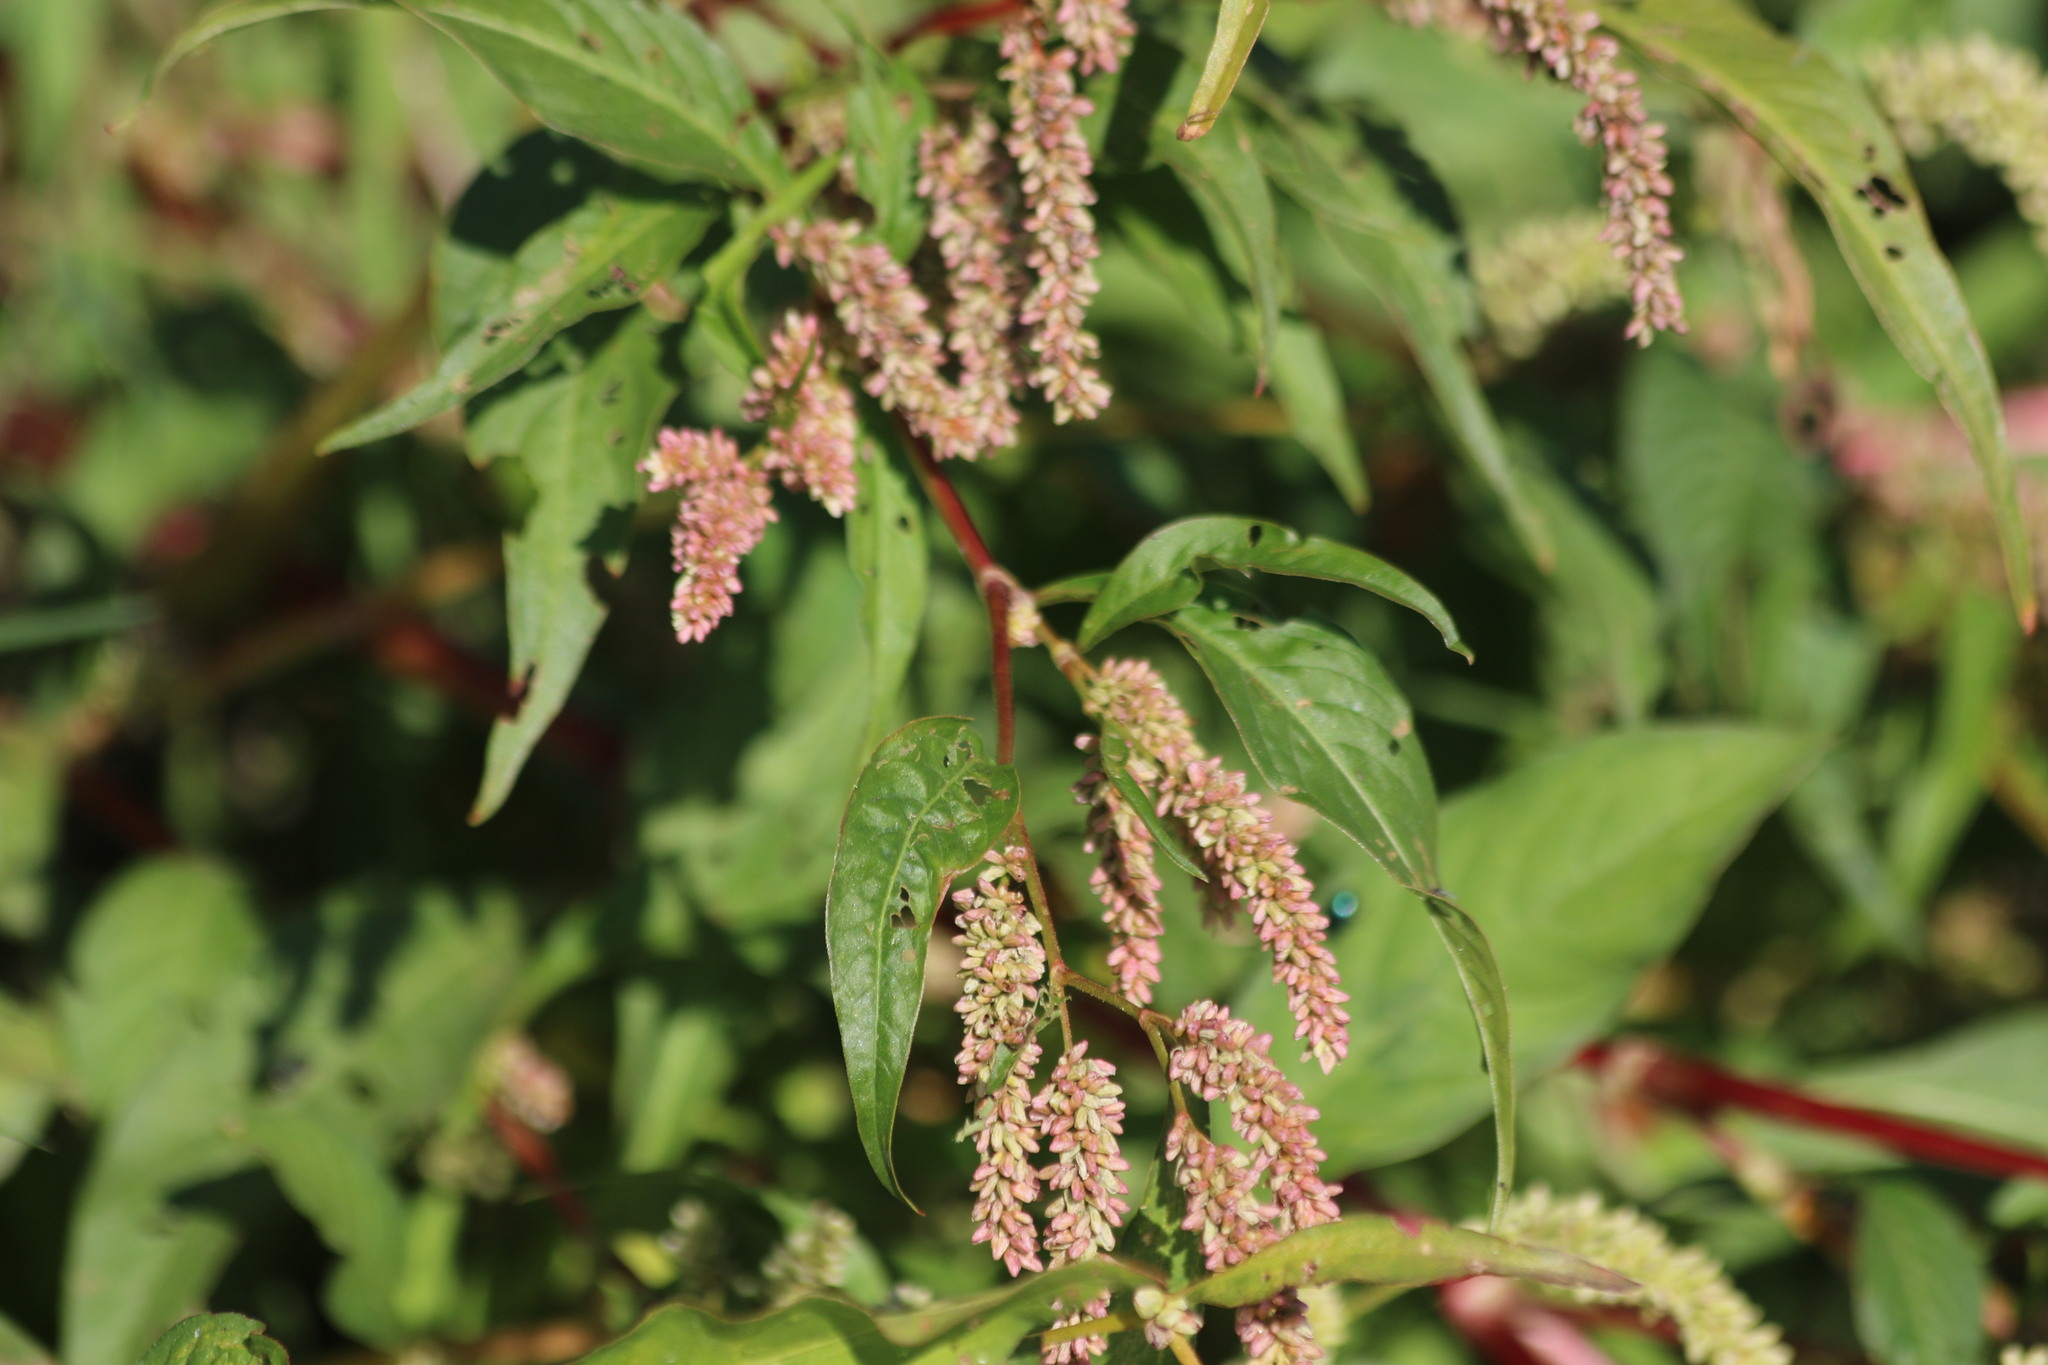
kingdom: Plantae
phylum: Tracheophyta
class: Magnoliopsida
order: Caryophyllales
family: Polygonaceae
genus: Persicaria
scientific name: Persicaria lapathifolia
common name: Curlytop knotweed
